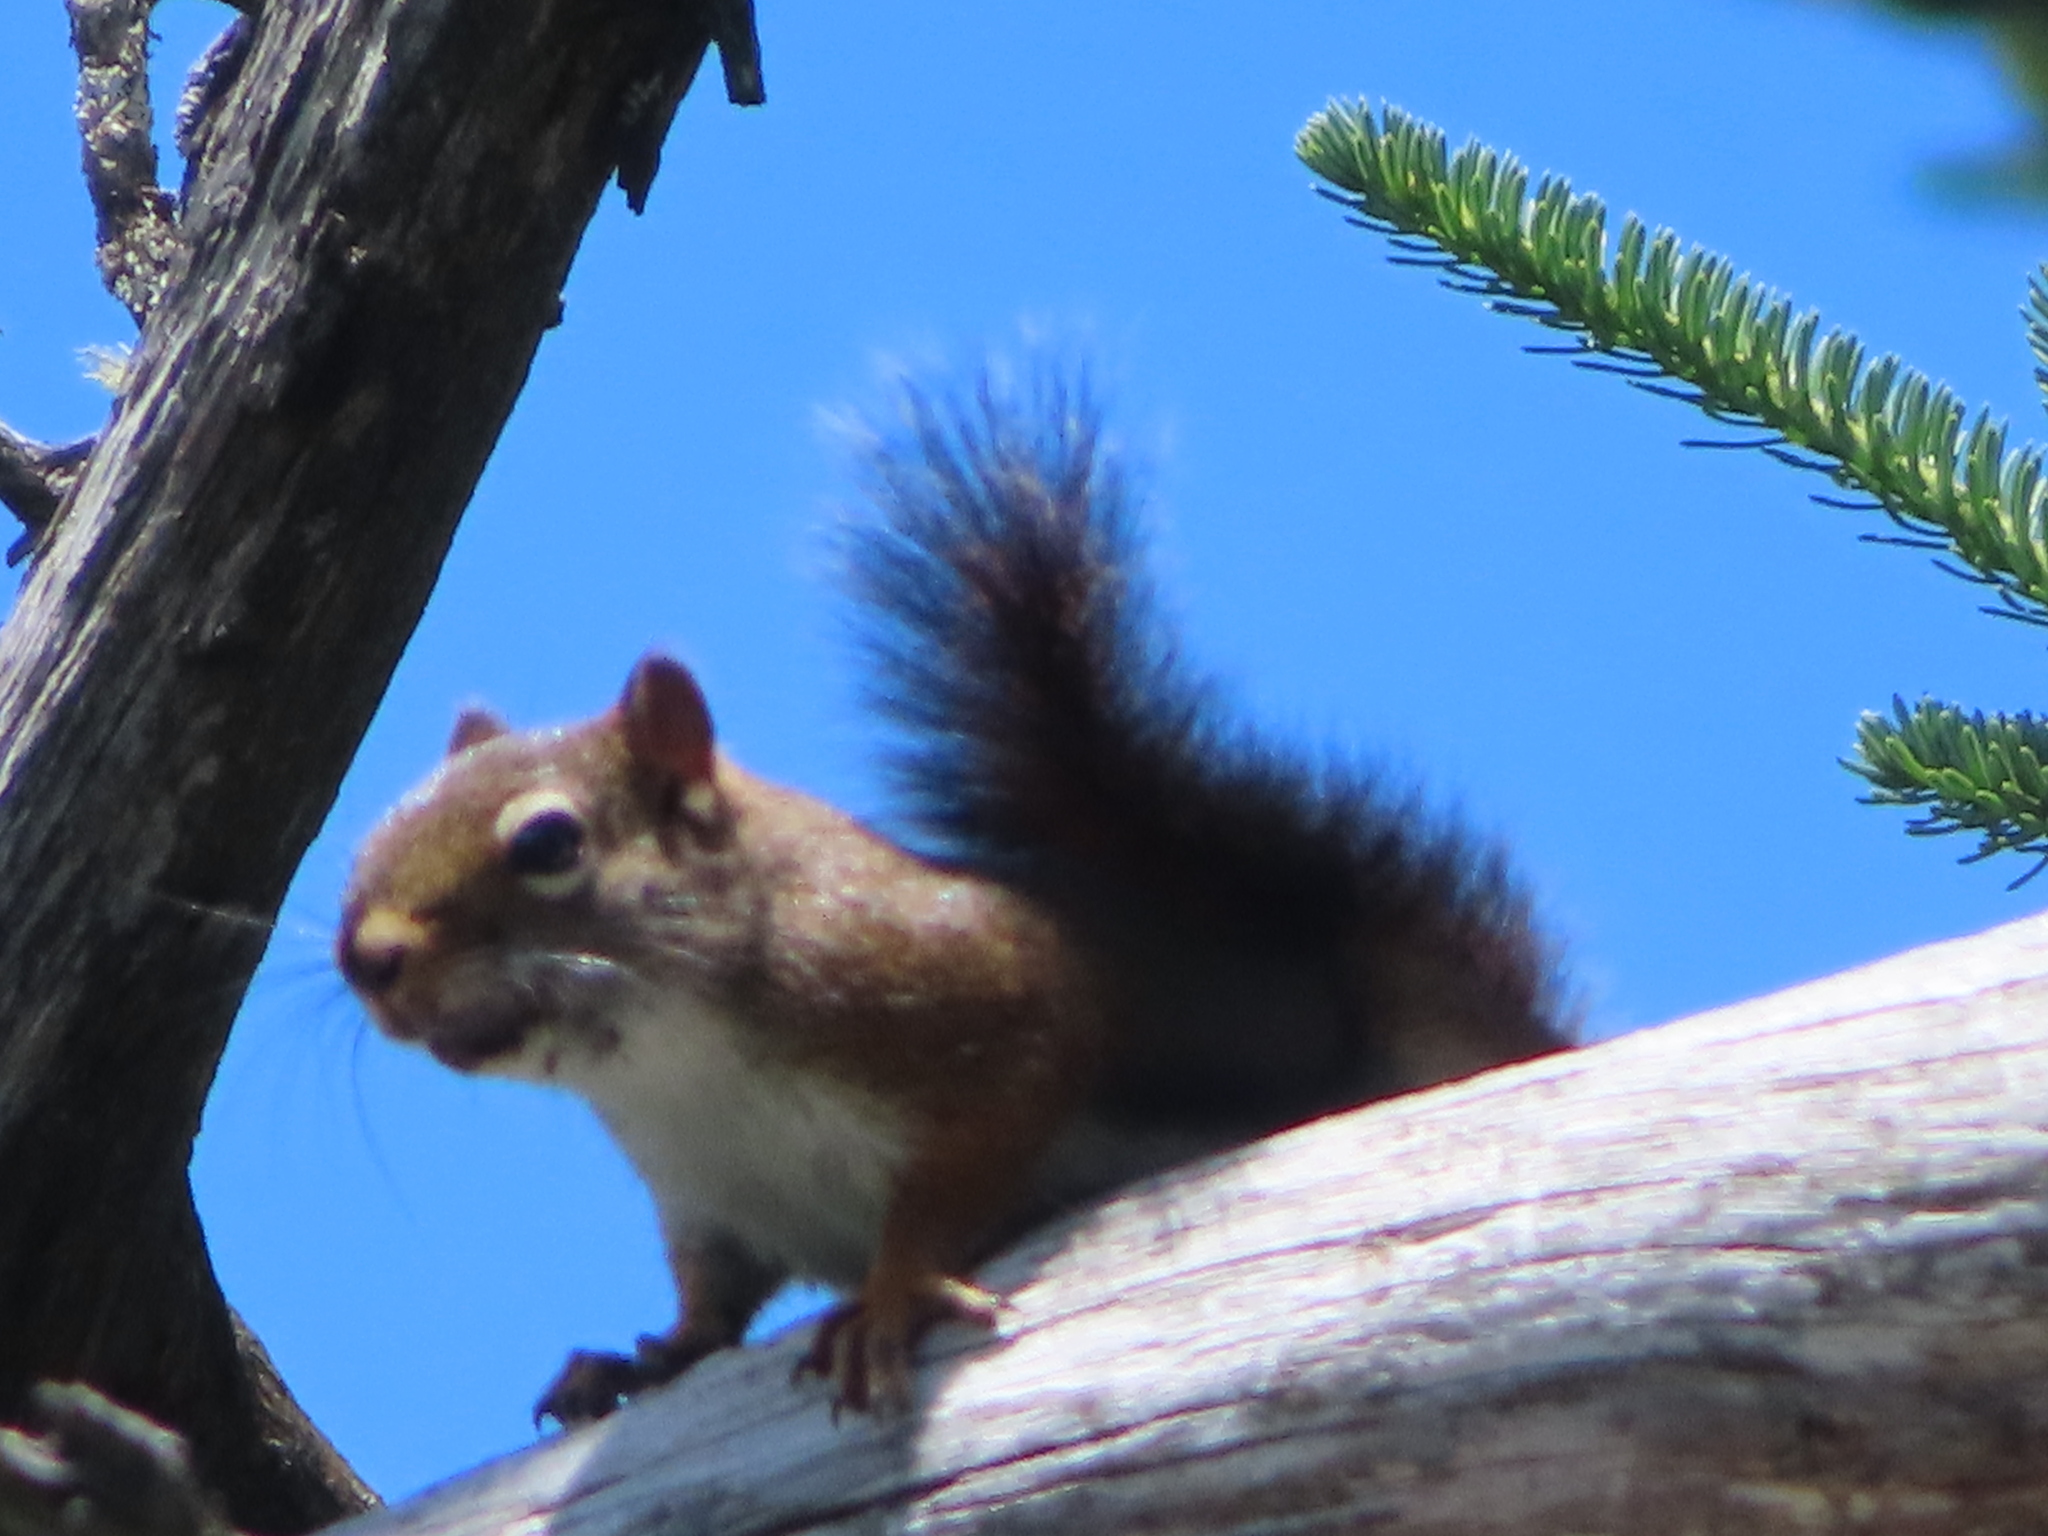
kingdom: Animalia
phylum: Chordata
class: Mammalia
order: Rodentia
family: Sciuridae
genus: Tamiasciurus
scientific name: Tamiasciurus hudsonicus
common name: Red squirrel
